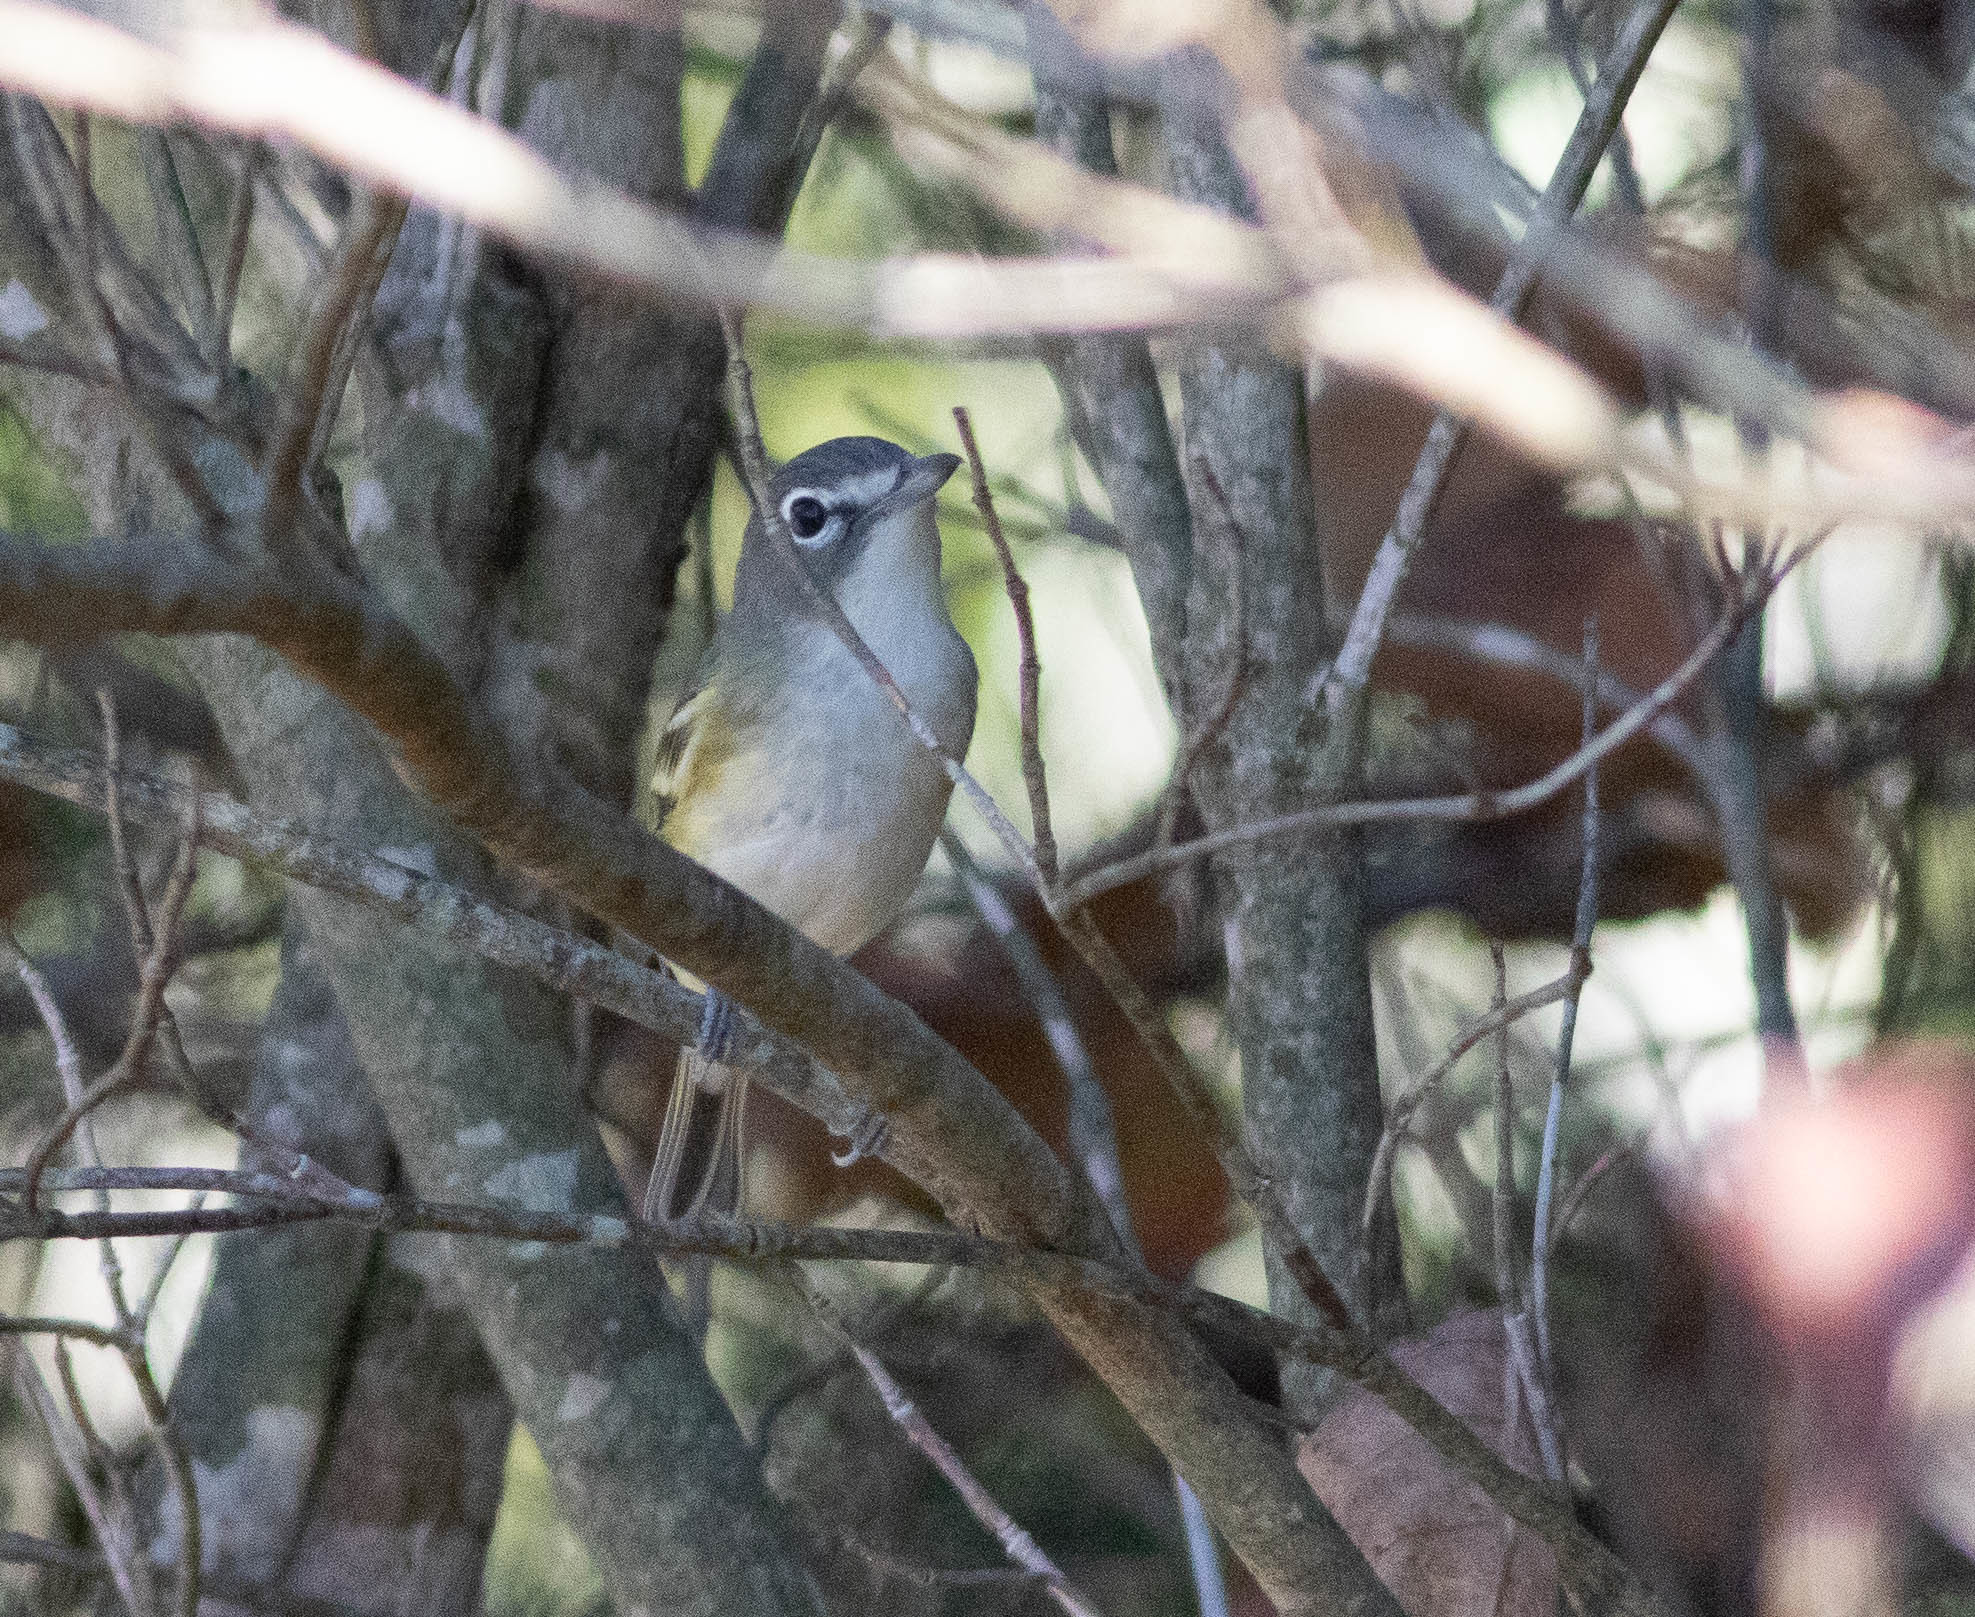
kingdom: Animalia
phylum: Chordata
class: Aves
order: Passeriformes
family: Vireonidae
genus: Vireo
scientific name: Vireo solitarius
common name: Blue-headed vireo
